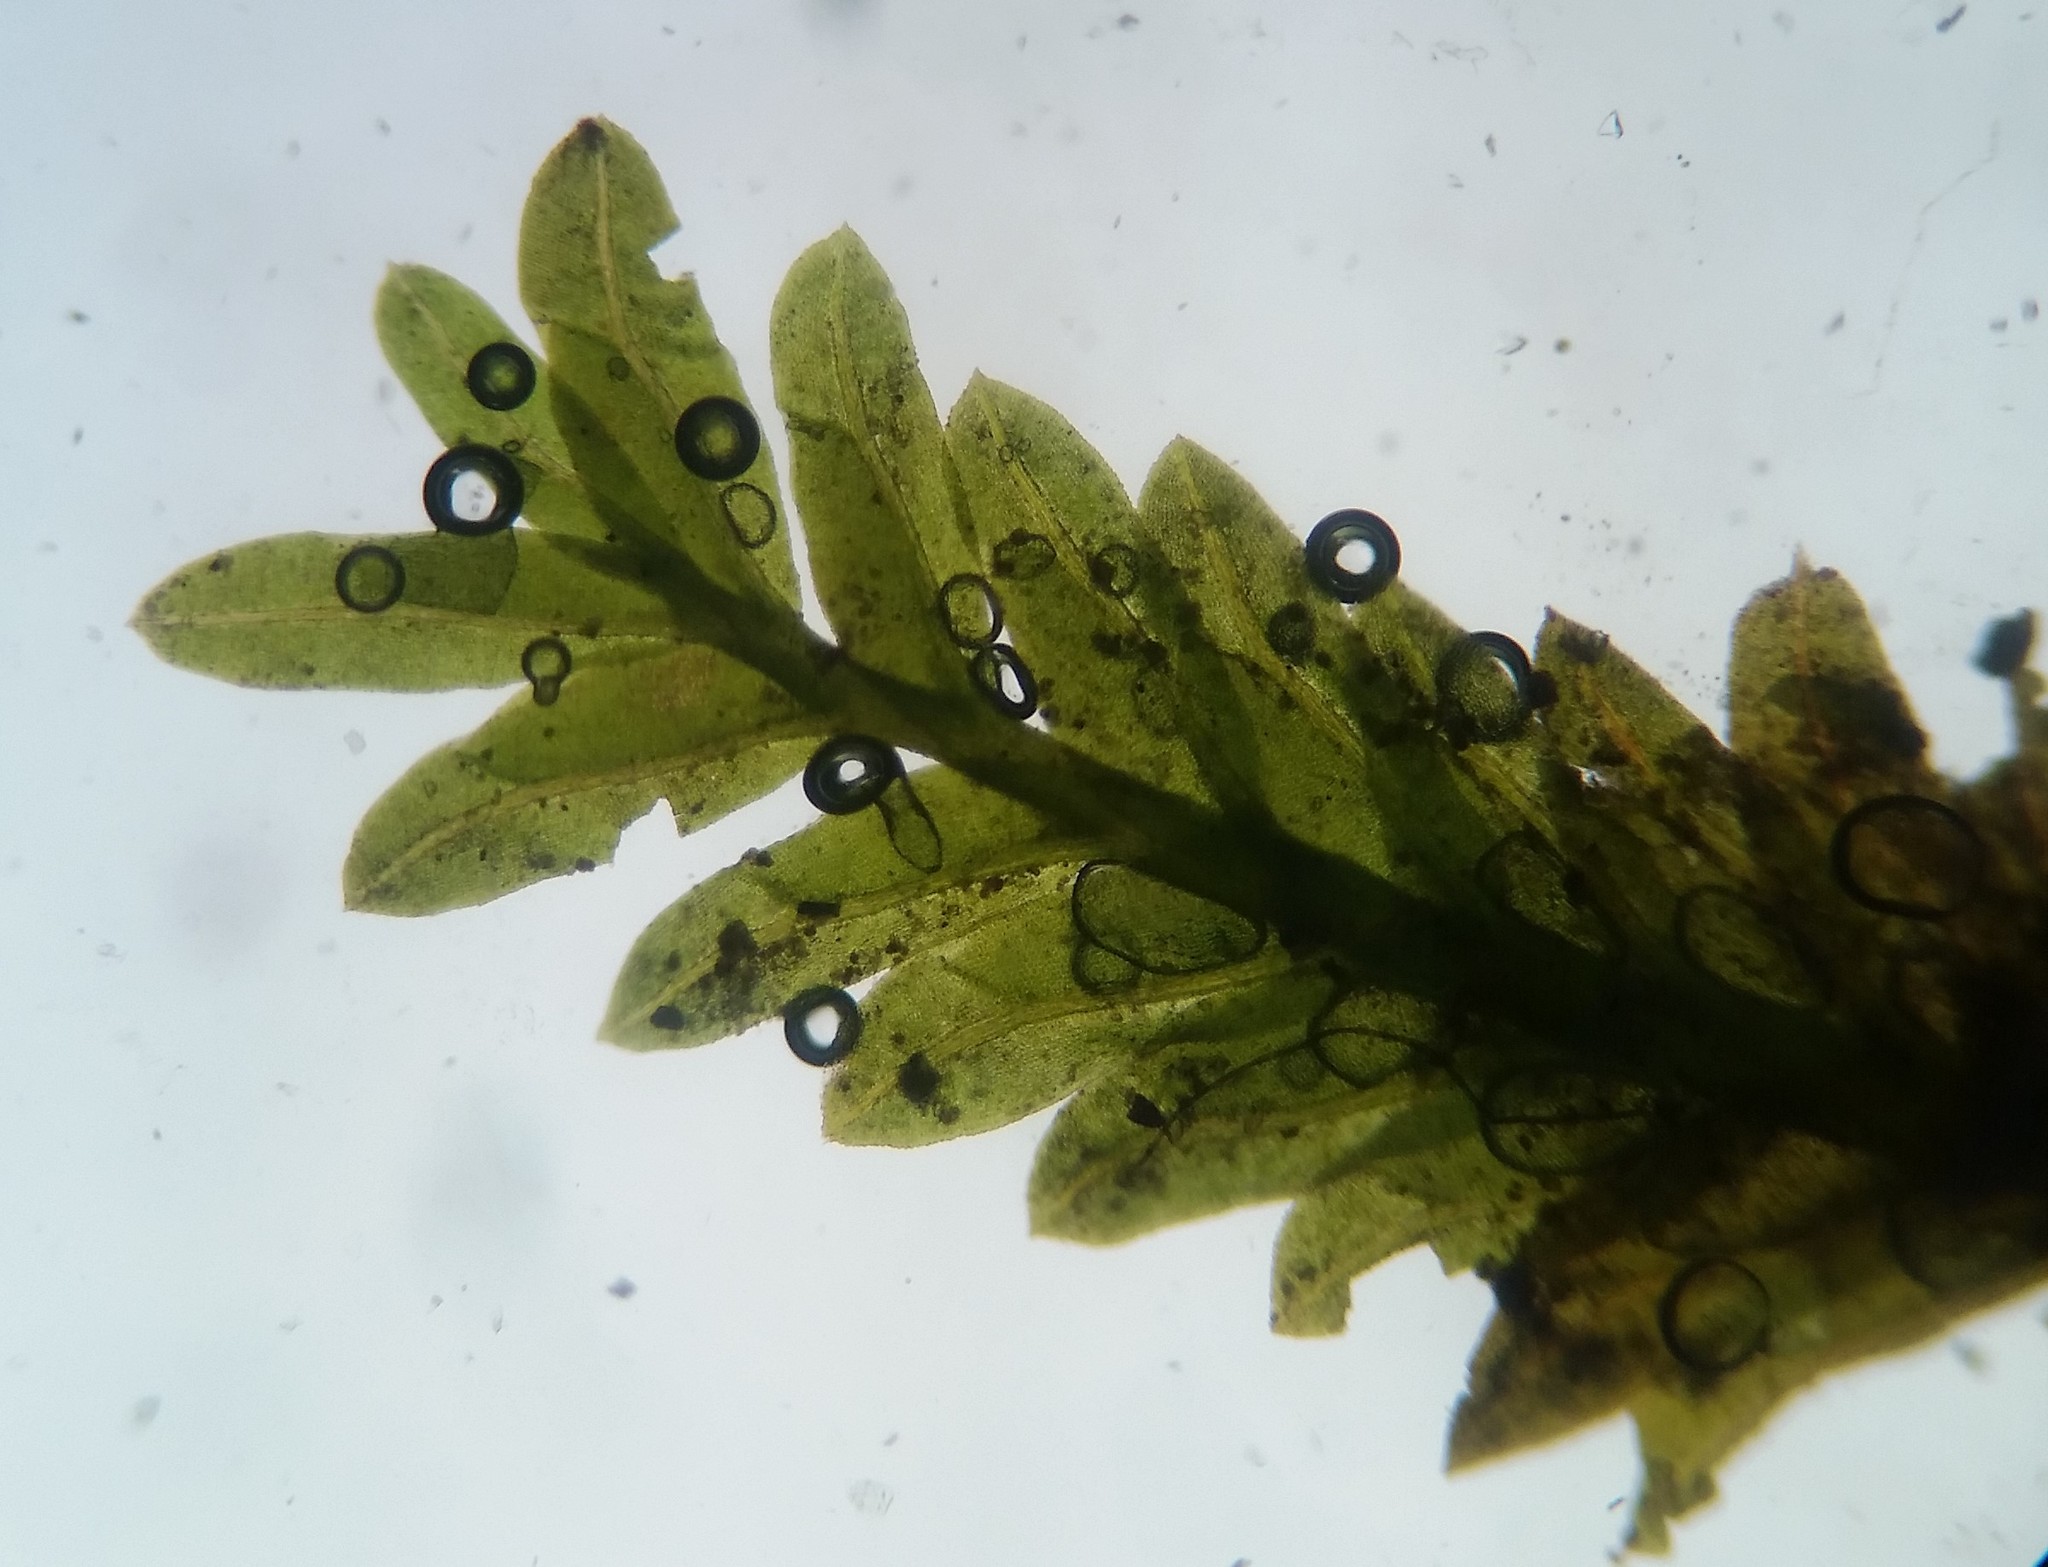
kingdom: Plantae
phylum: Bryophyta
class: Bryopsida
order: Dicranales
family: Fissidentaceae
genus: Fissidens
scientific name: Fissidens bushii
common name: Bush's pocket moss
